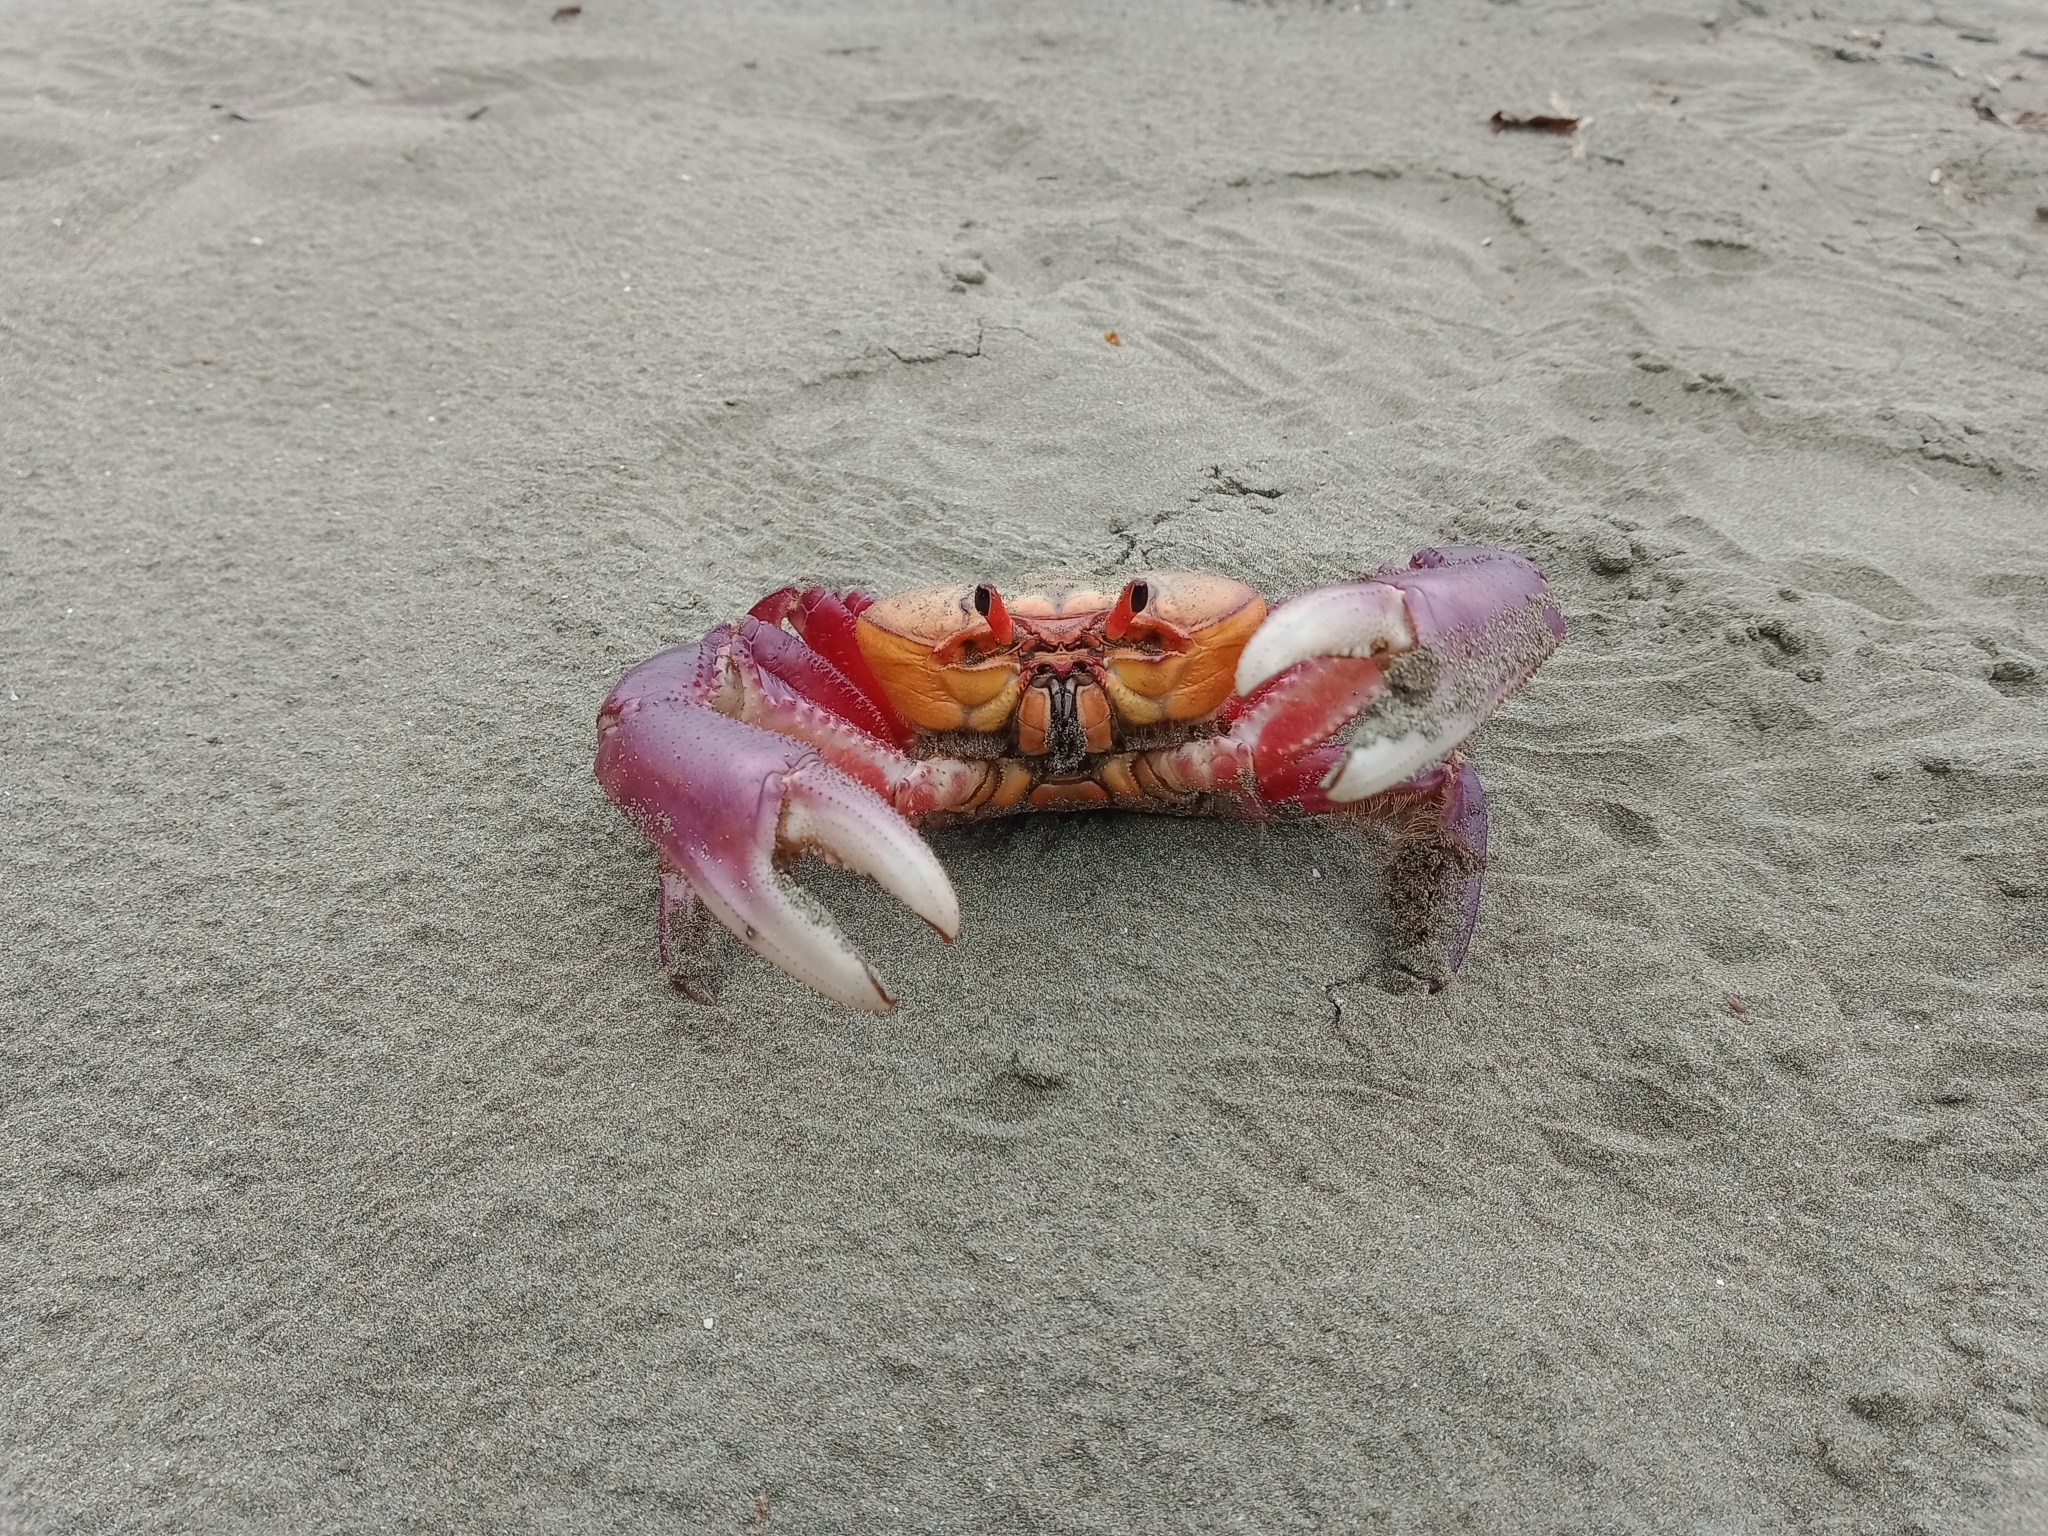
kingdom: Animalia
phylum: Arthropoda
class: Malacostraca
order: Decapoda
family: Ocypodidae
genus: Ucides
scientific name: Ucides occidentalis
